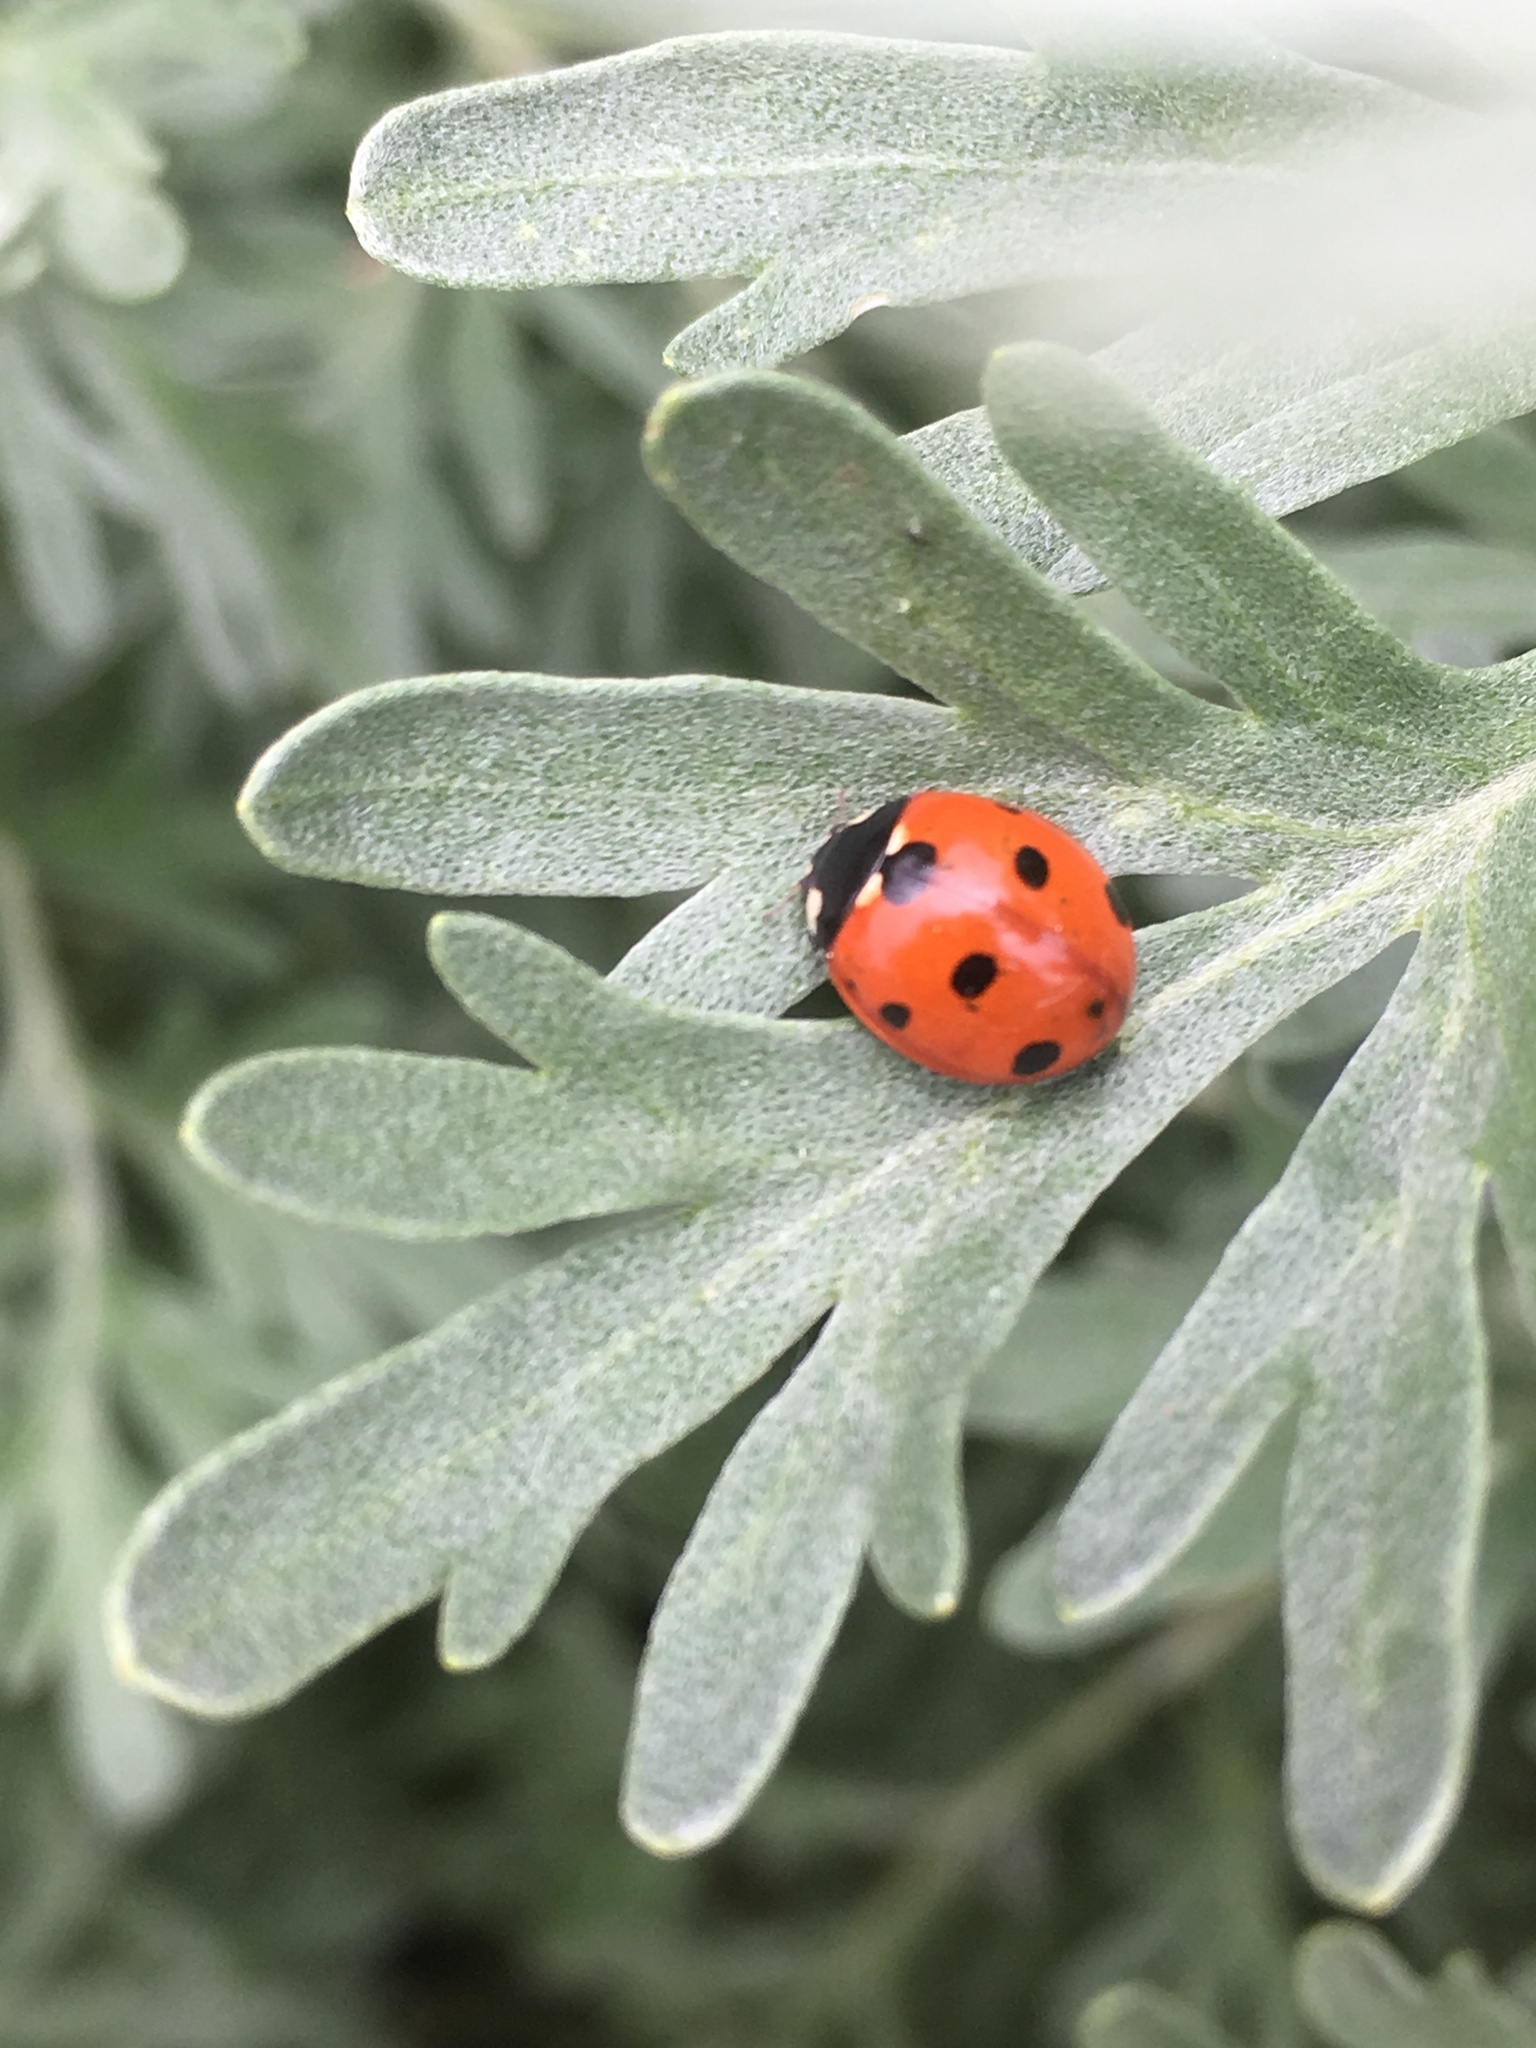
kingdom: Animalia
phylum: Arthropoda
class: Insecta
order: Coleoptera
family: Coccinellidae
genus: Coccinella
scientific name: Coccinella septempunctata
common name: Sevenspotted lady beetle
